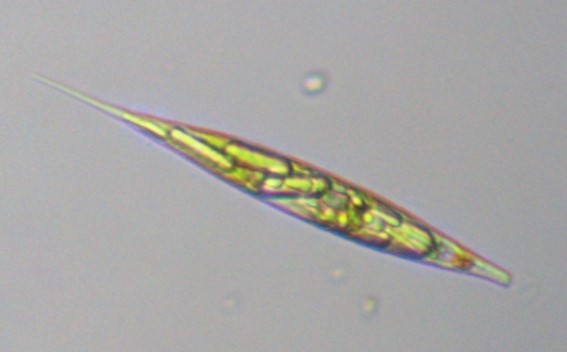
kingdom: Protozoa
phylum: Euglenozoa
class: Euglenoidea
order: Euglenida
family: Phacidae
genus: Lepocinclis
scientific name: Lepocinclis acus
